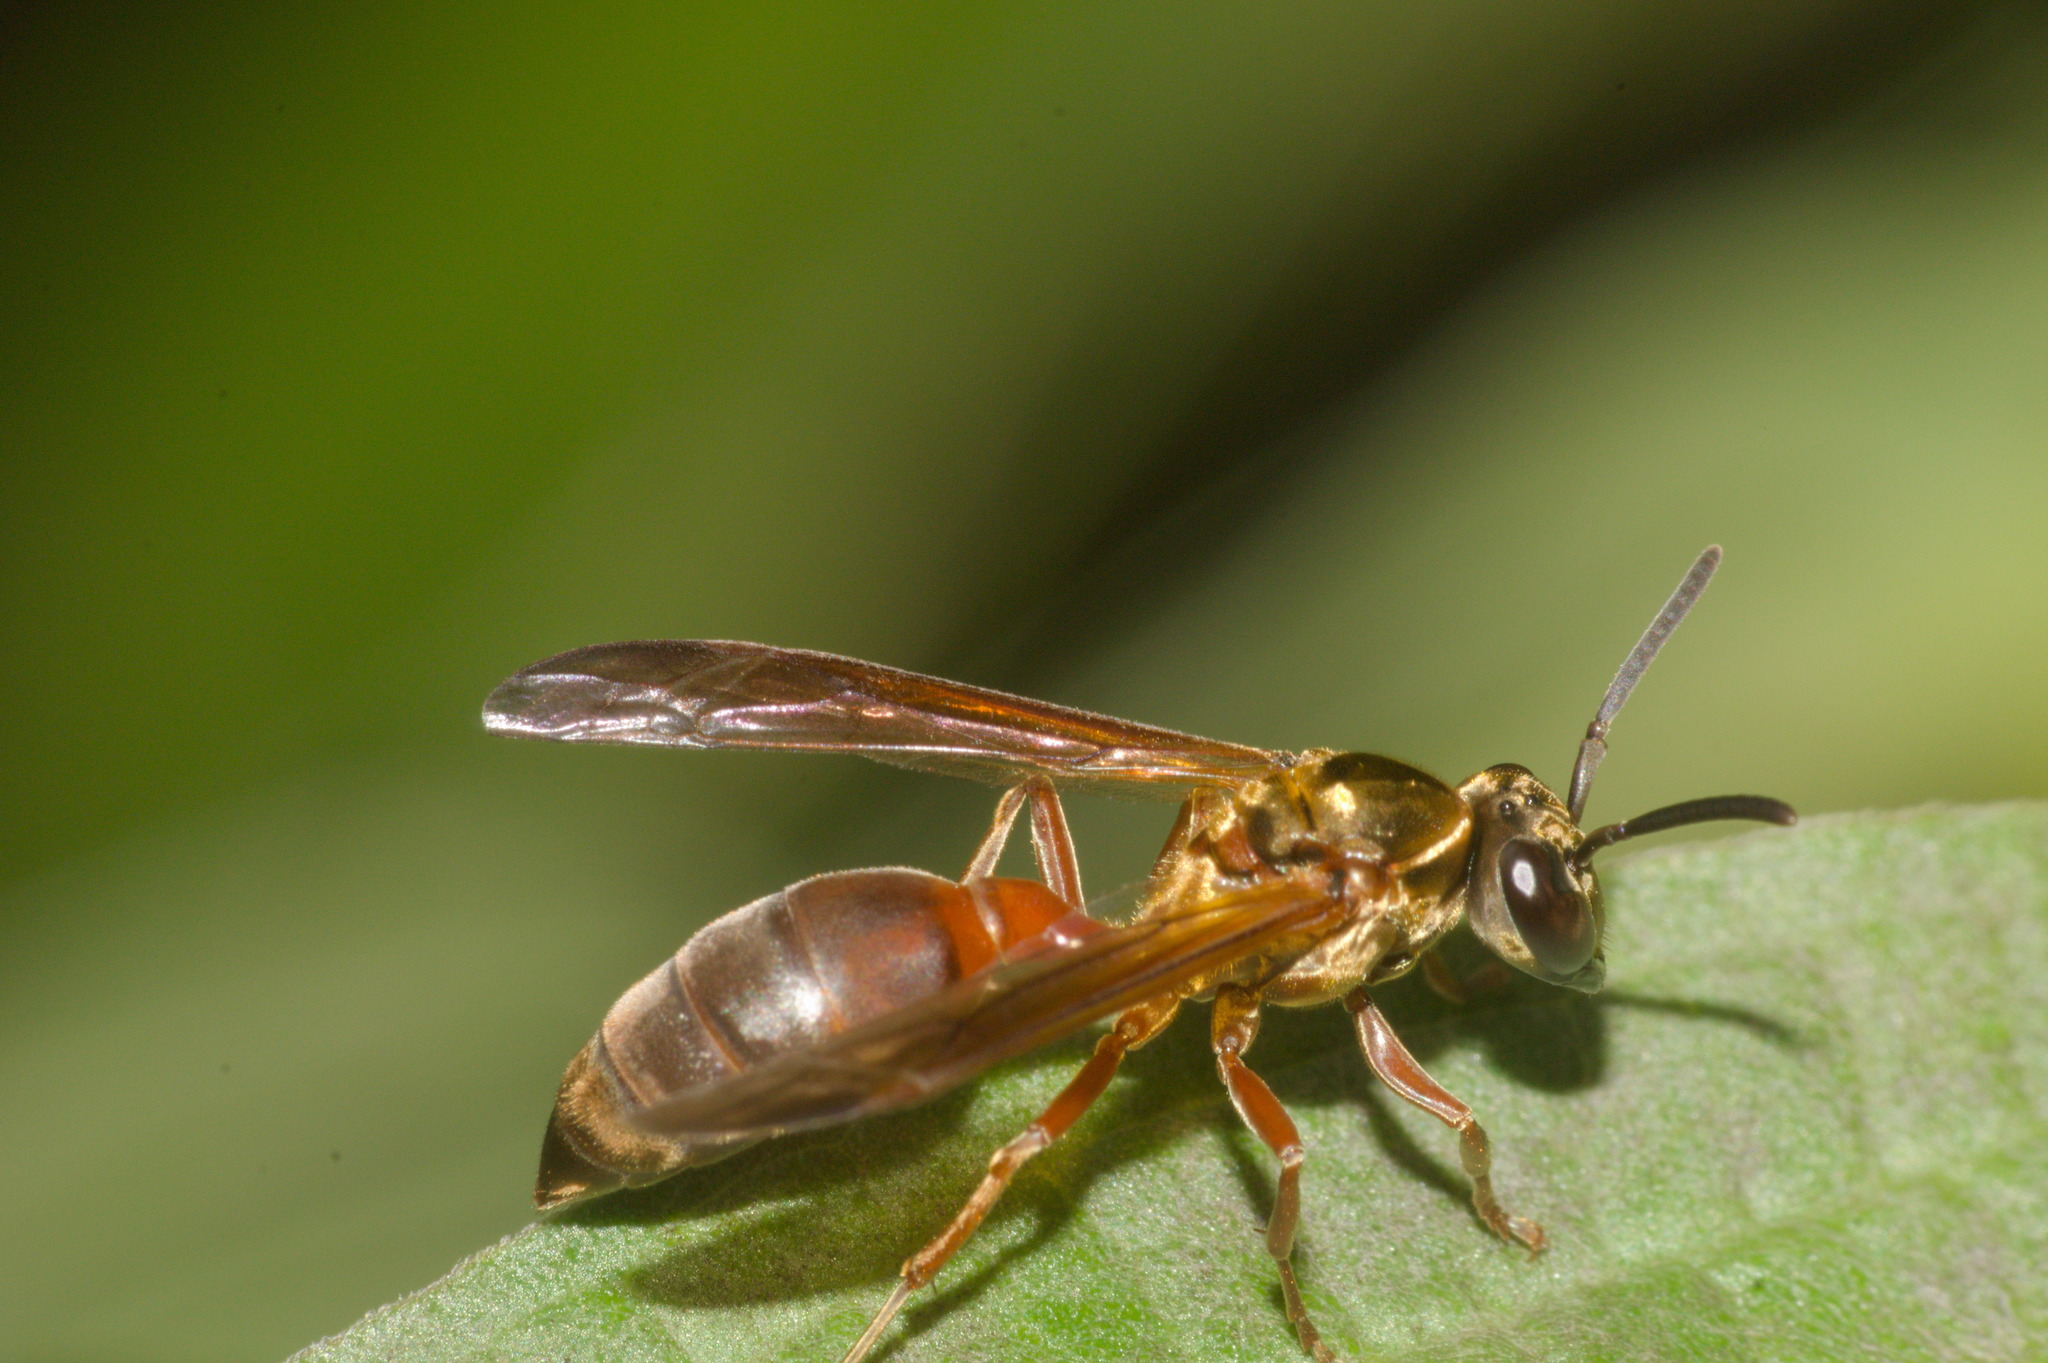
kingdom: Animalia
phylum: Arthropoda
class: Insecta
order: Hymenoptera
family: Eumenidae
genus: Polybia
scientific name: Polybia chrysothorax
